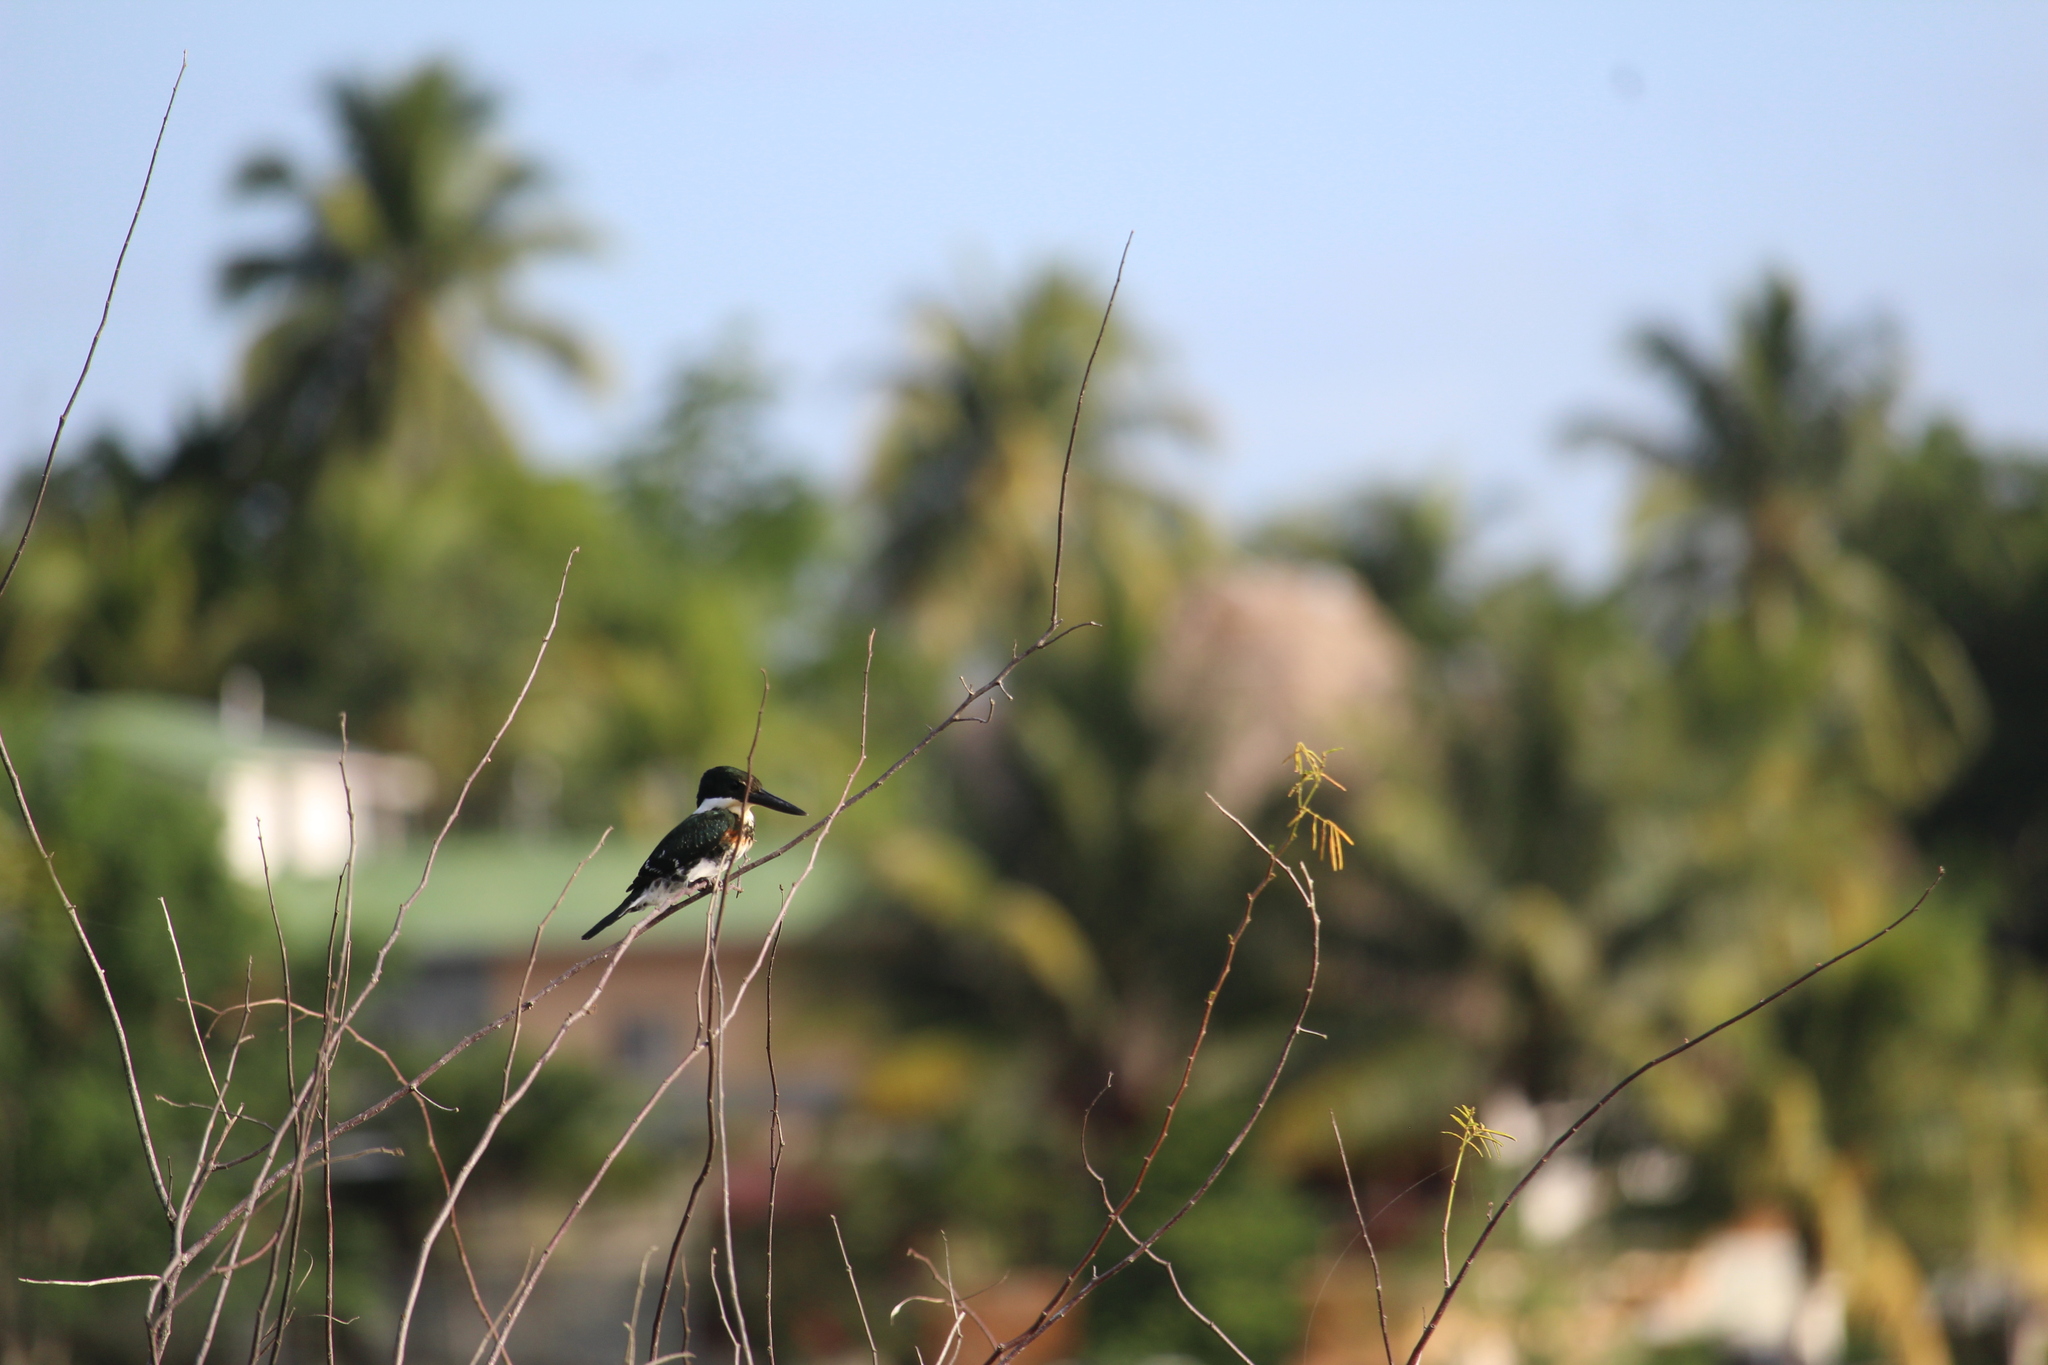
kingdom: Animalia
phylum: Chordata
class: Aves
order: Coraciiformes
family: Alcedinidae
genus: Chloroceryle
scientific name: Chloroceryle americana
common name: Green kingfisher
